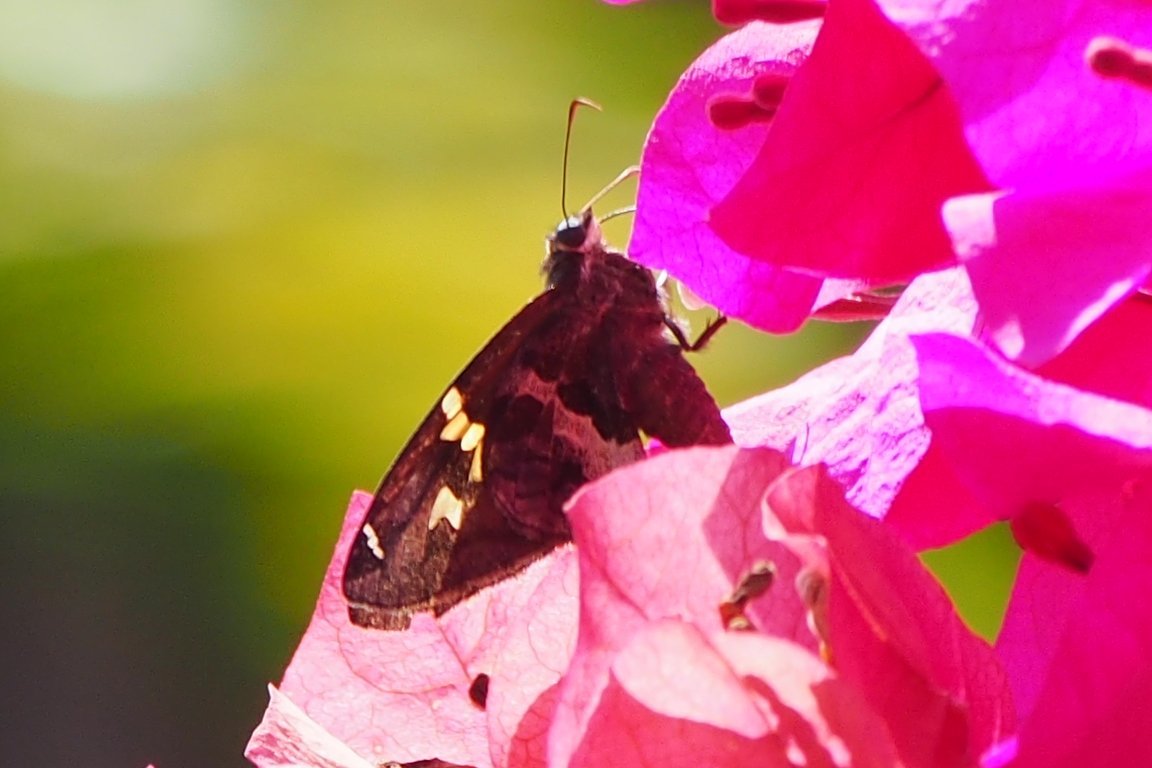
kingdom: Animalia
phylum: Arthropoda
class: Insecta
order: Lepidoptera
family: Hesperiidae
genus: Urbanus
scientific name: Urbanus proteus
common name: Long-tailed skipper
